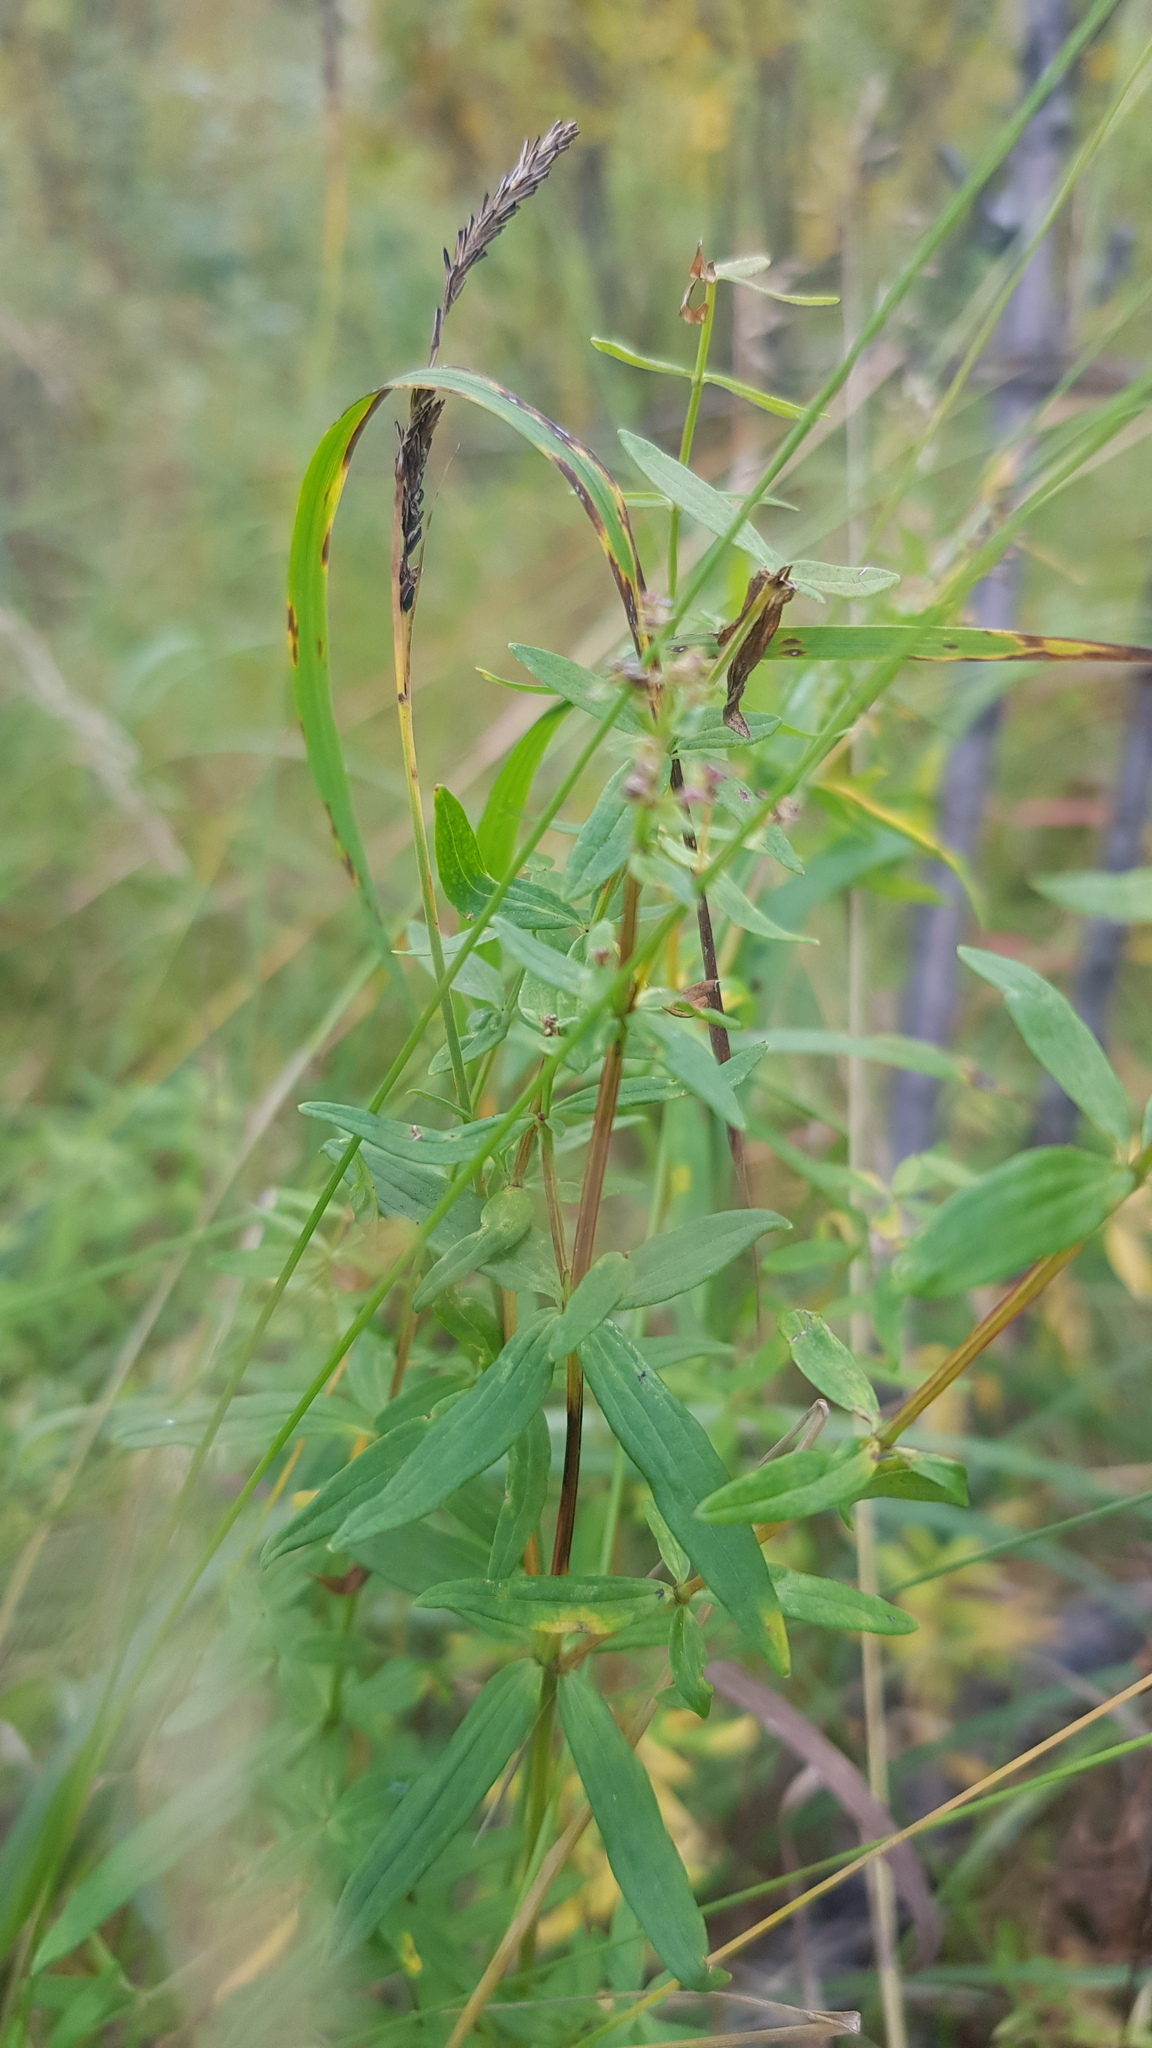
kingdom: Plantae
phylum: Tracheophyta
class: Magnoliopsida
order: Gentianales
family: Rubiaceae
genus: Galium
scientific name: Galium boreale
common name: Northern bedstraw
